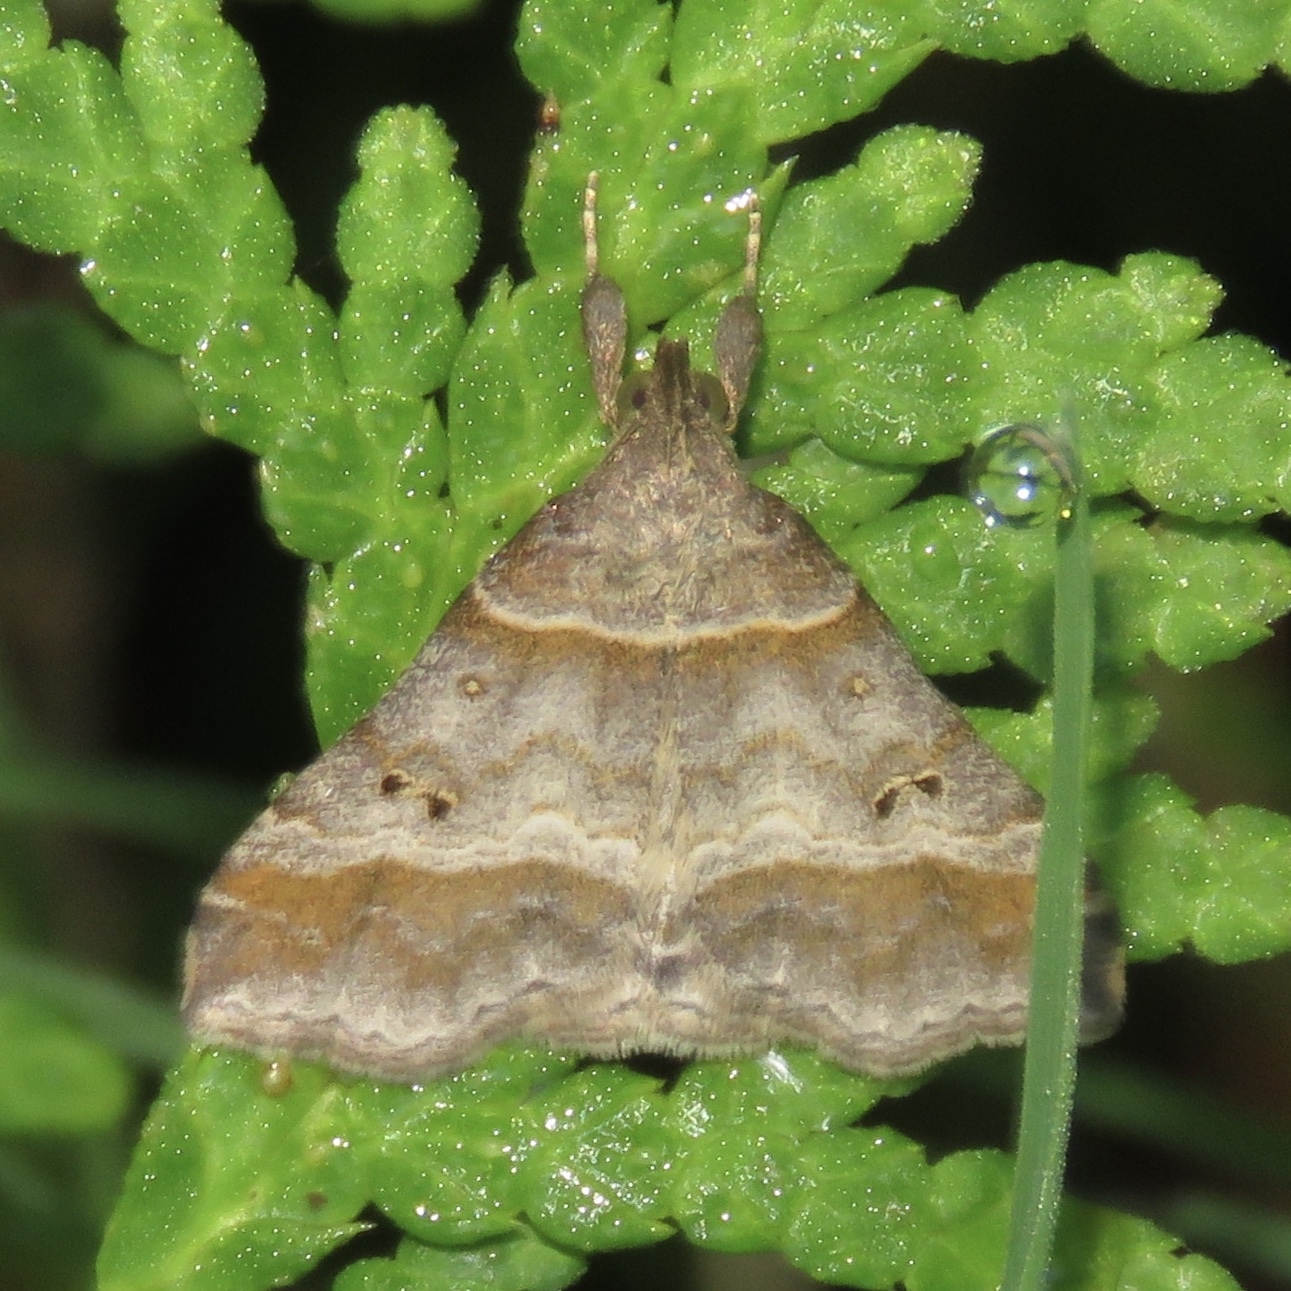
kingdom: Animalia
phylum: Arthropoda
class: Insecta
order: Lepidoptera
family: Erebidae
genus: Phaeolita
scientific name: Phaeolita pyramusalis
